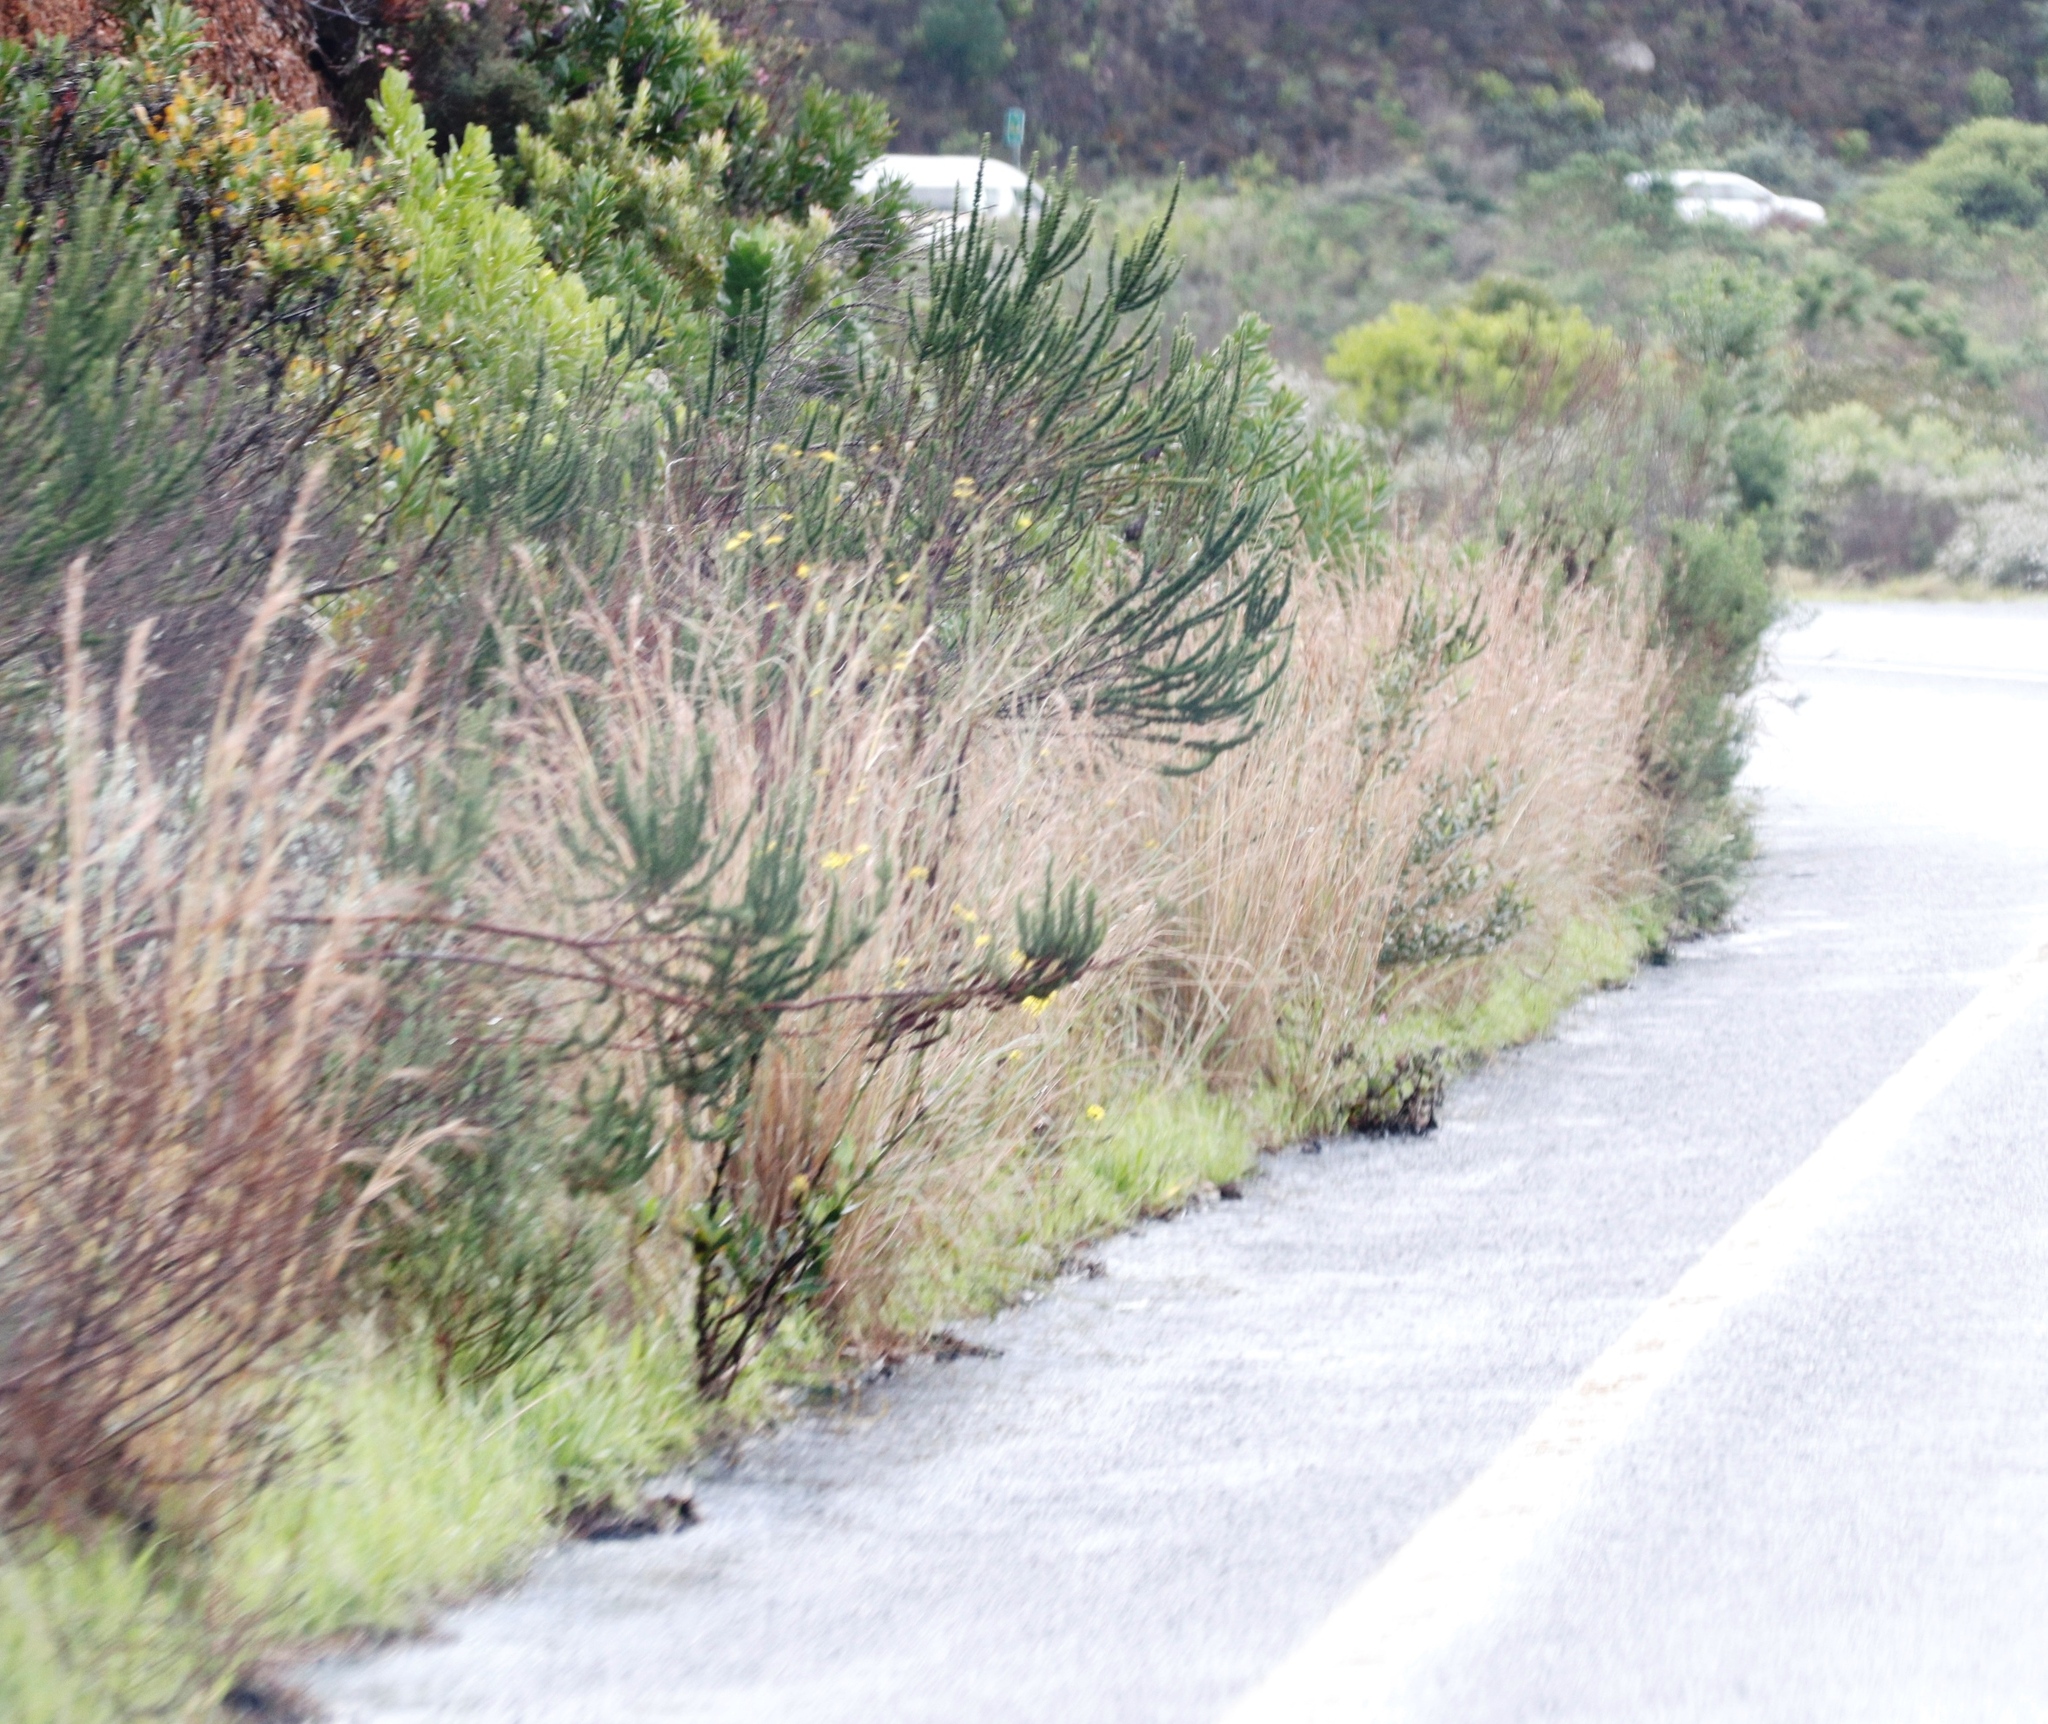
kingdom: Plantae
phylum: Tracheophyta
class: Liliopsida
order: Poales
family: Poaceae
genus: Hyparrhenia
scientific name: Hyparrhenia hirta
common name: Thatching grass
